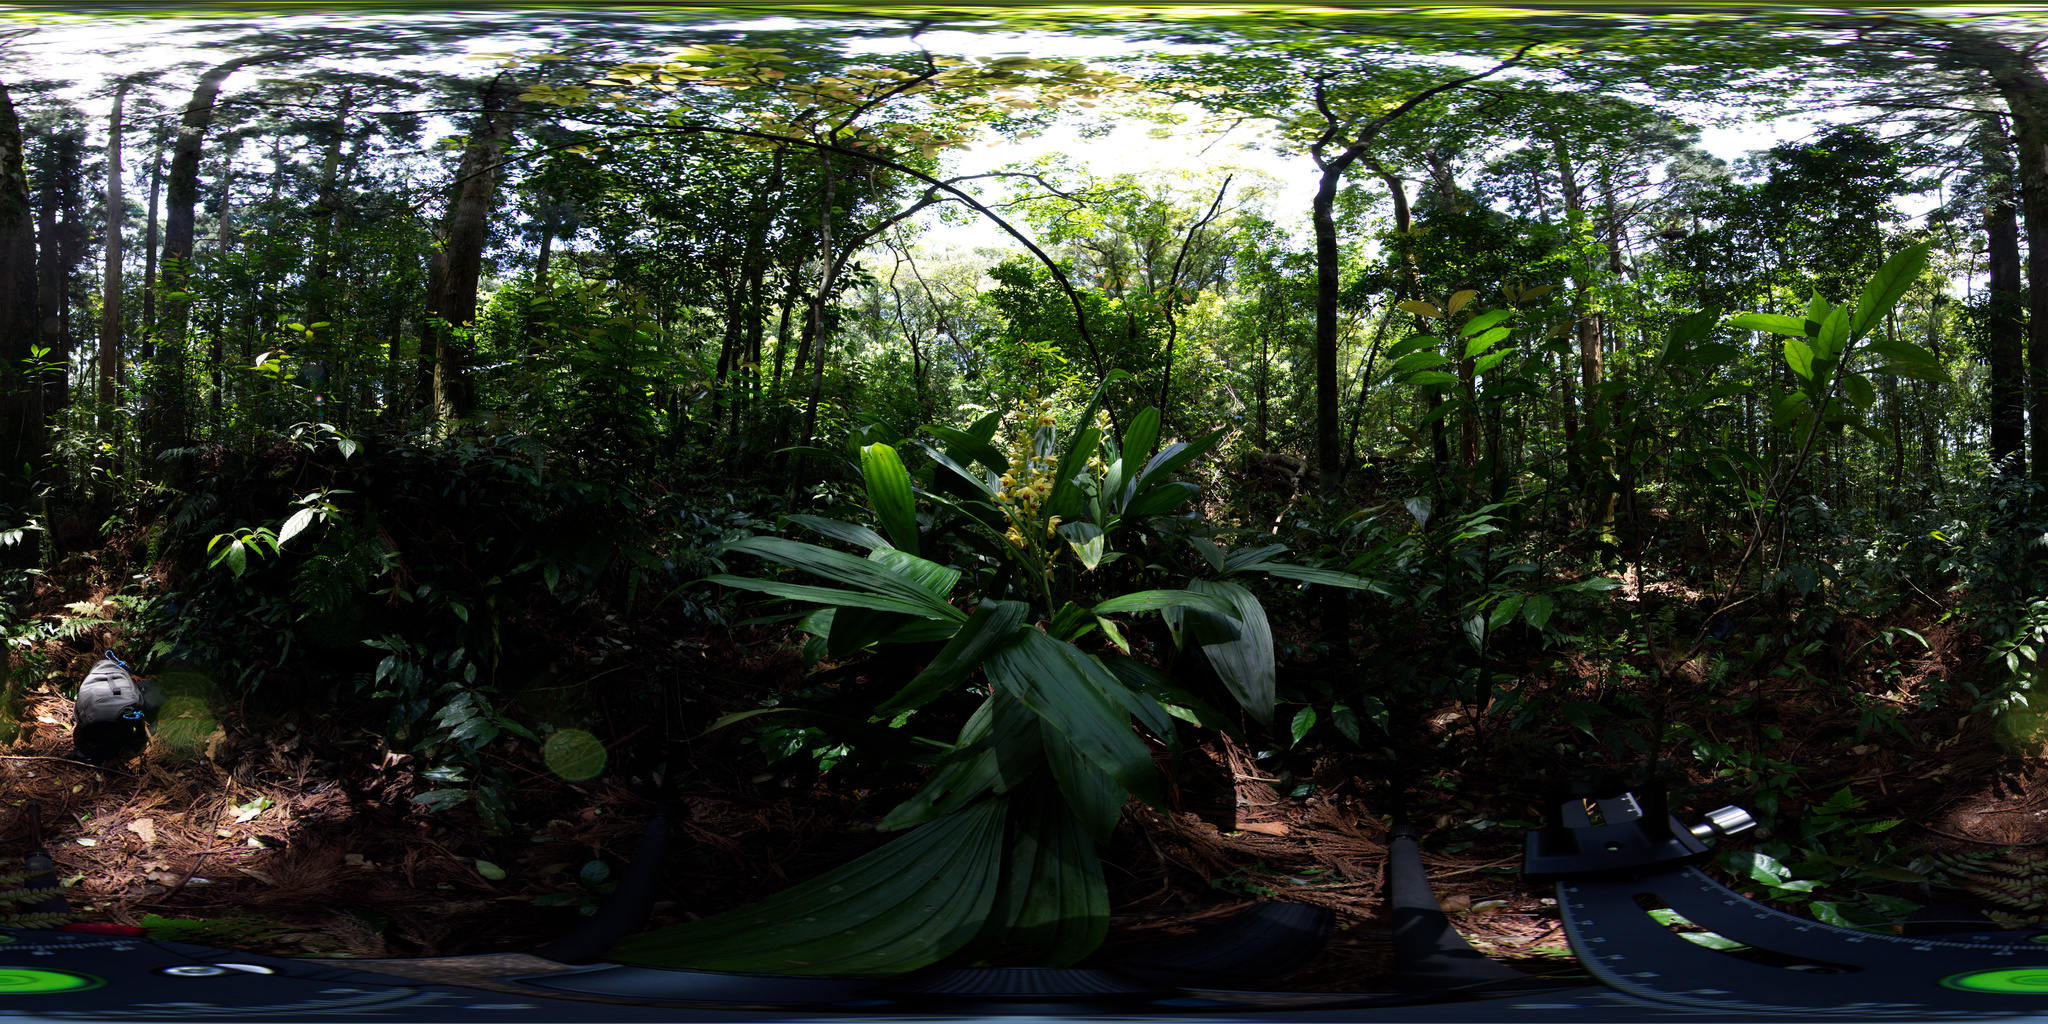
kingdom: Plantae
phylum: Tracheophyta
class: Liliopsida
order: Asparagales
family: Orchidaceae
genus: Calanthe
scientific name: Calanthe woodfordii
